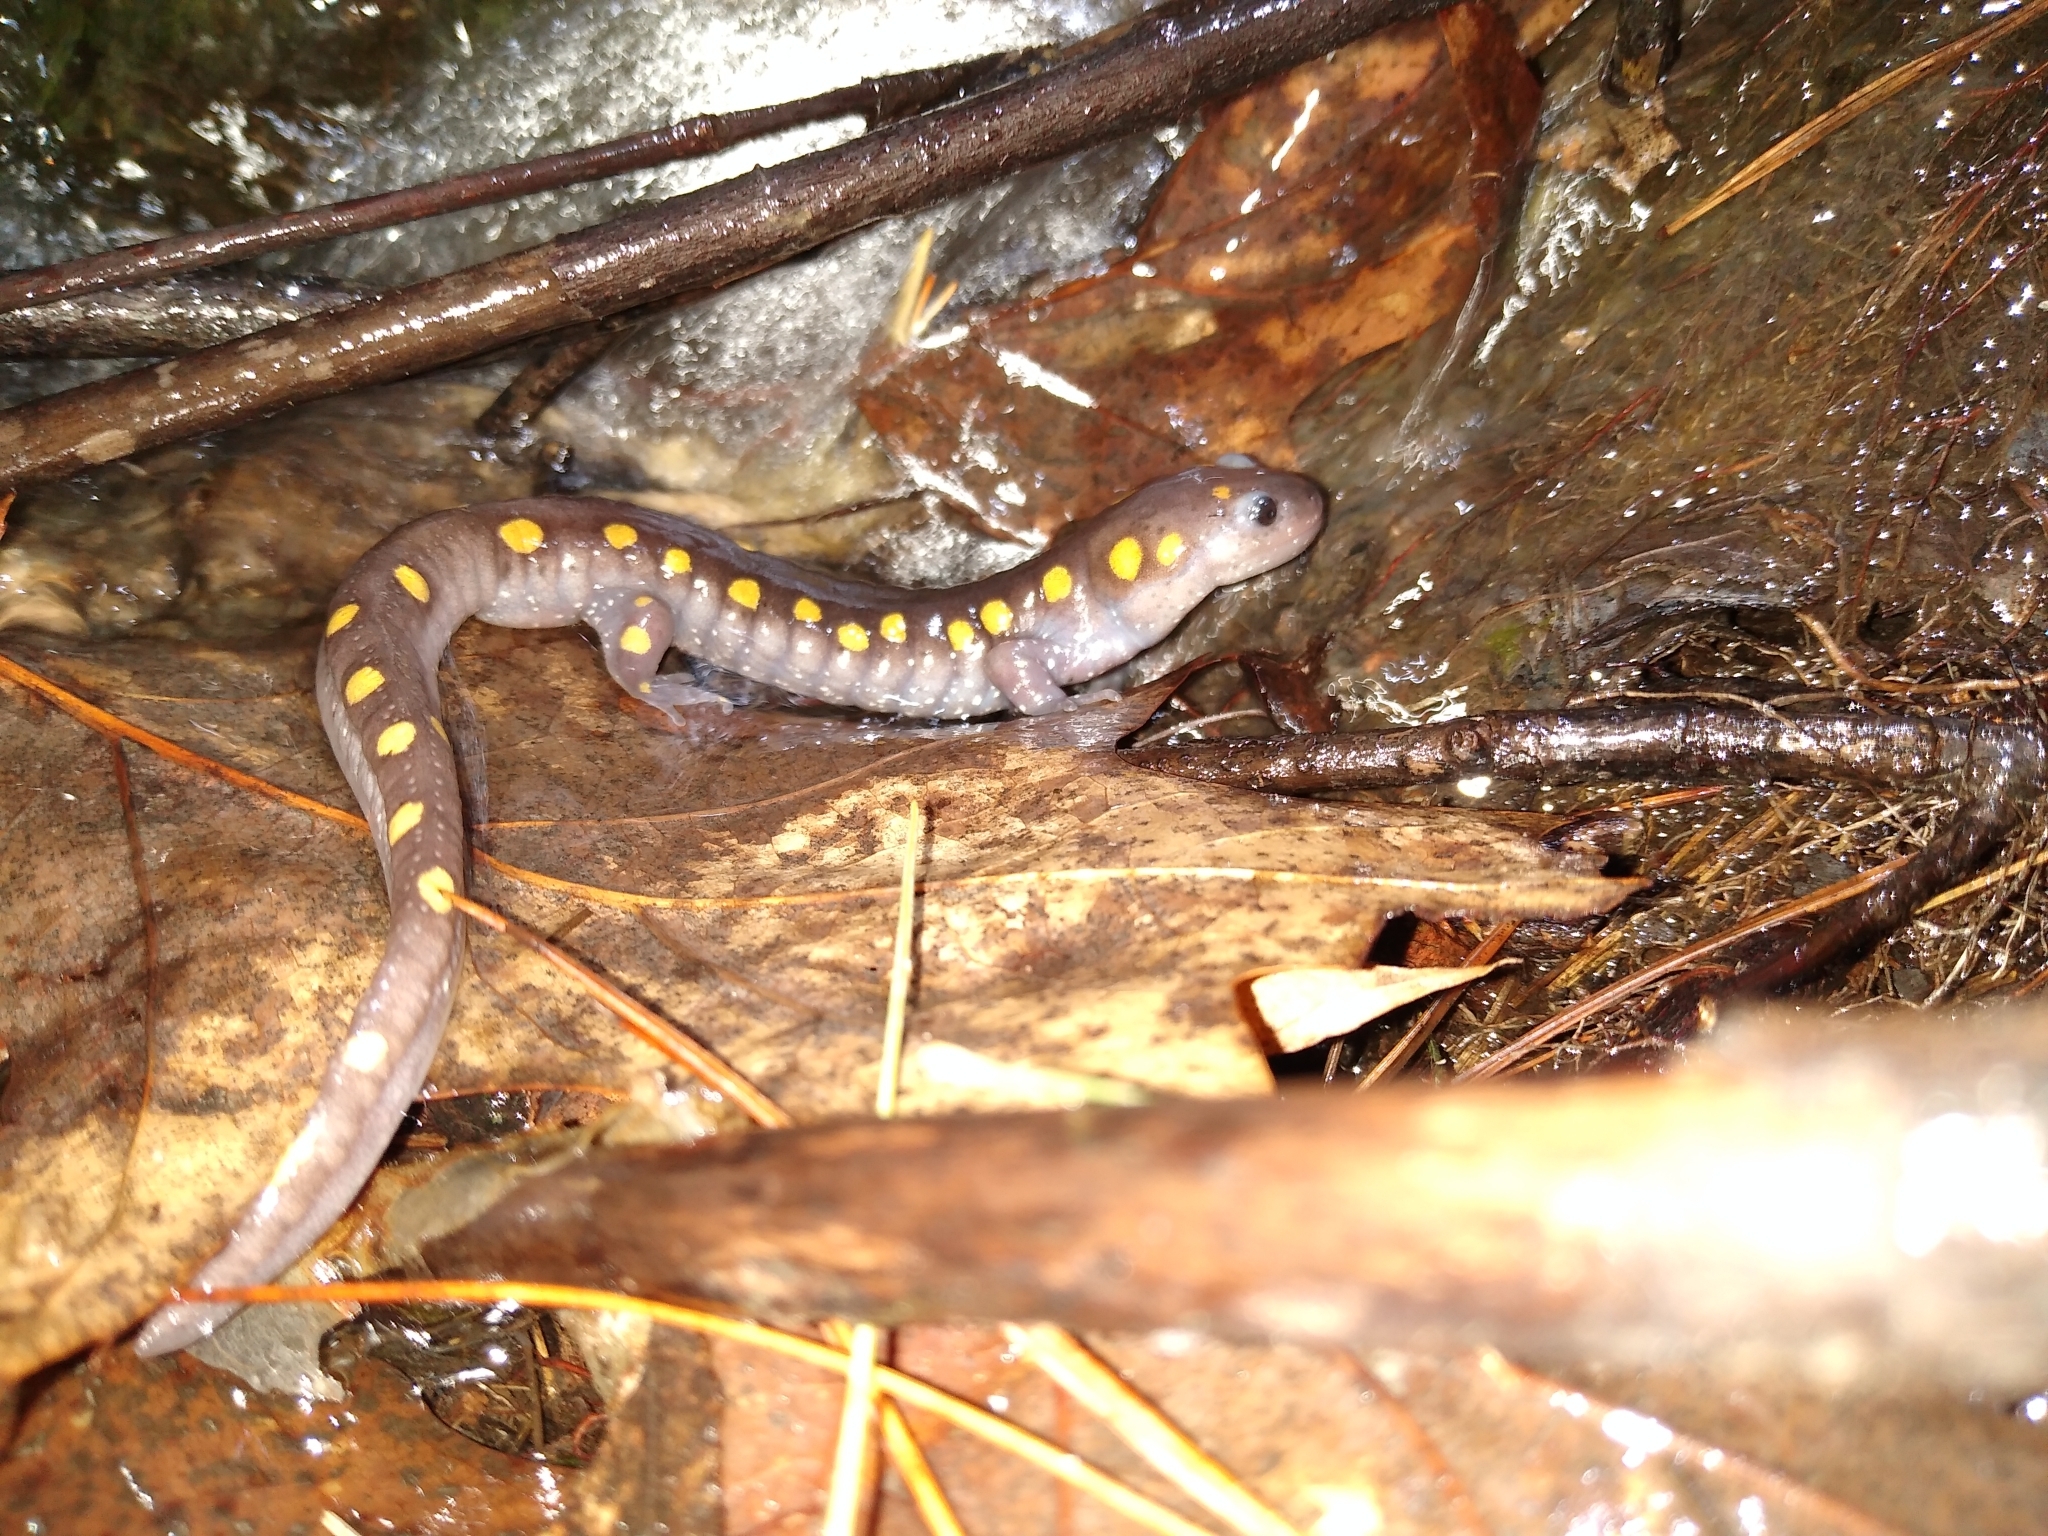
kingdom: Animalia
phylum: Chordata
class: Amphibia
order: Caudata
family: Ambystomatidae
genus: Ambystoma
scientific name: Ambystoma maculatum
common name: Spotted salamander
